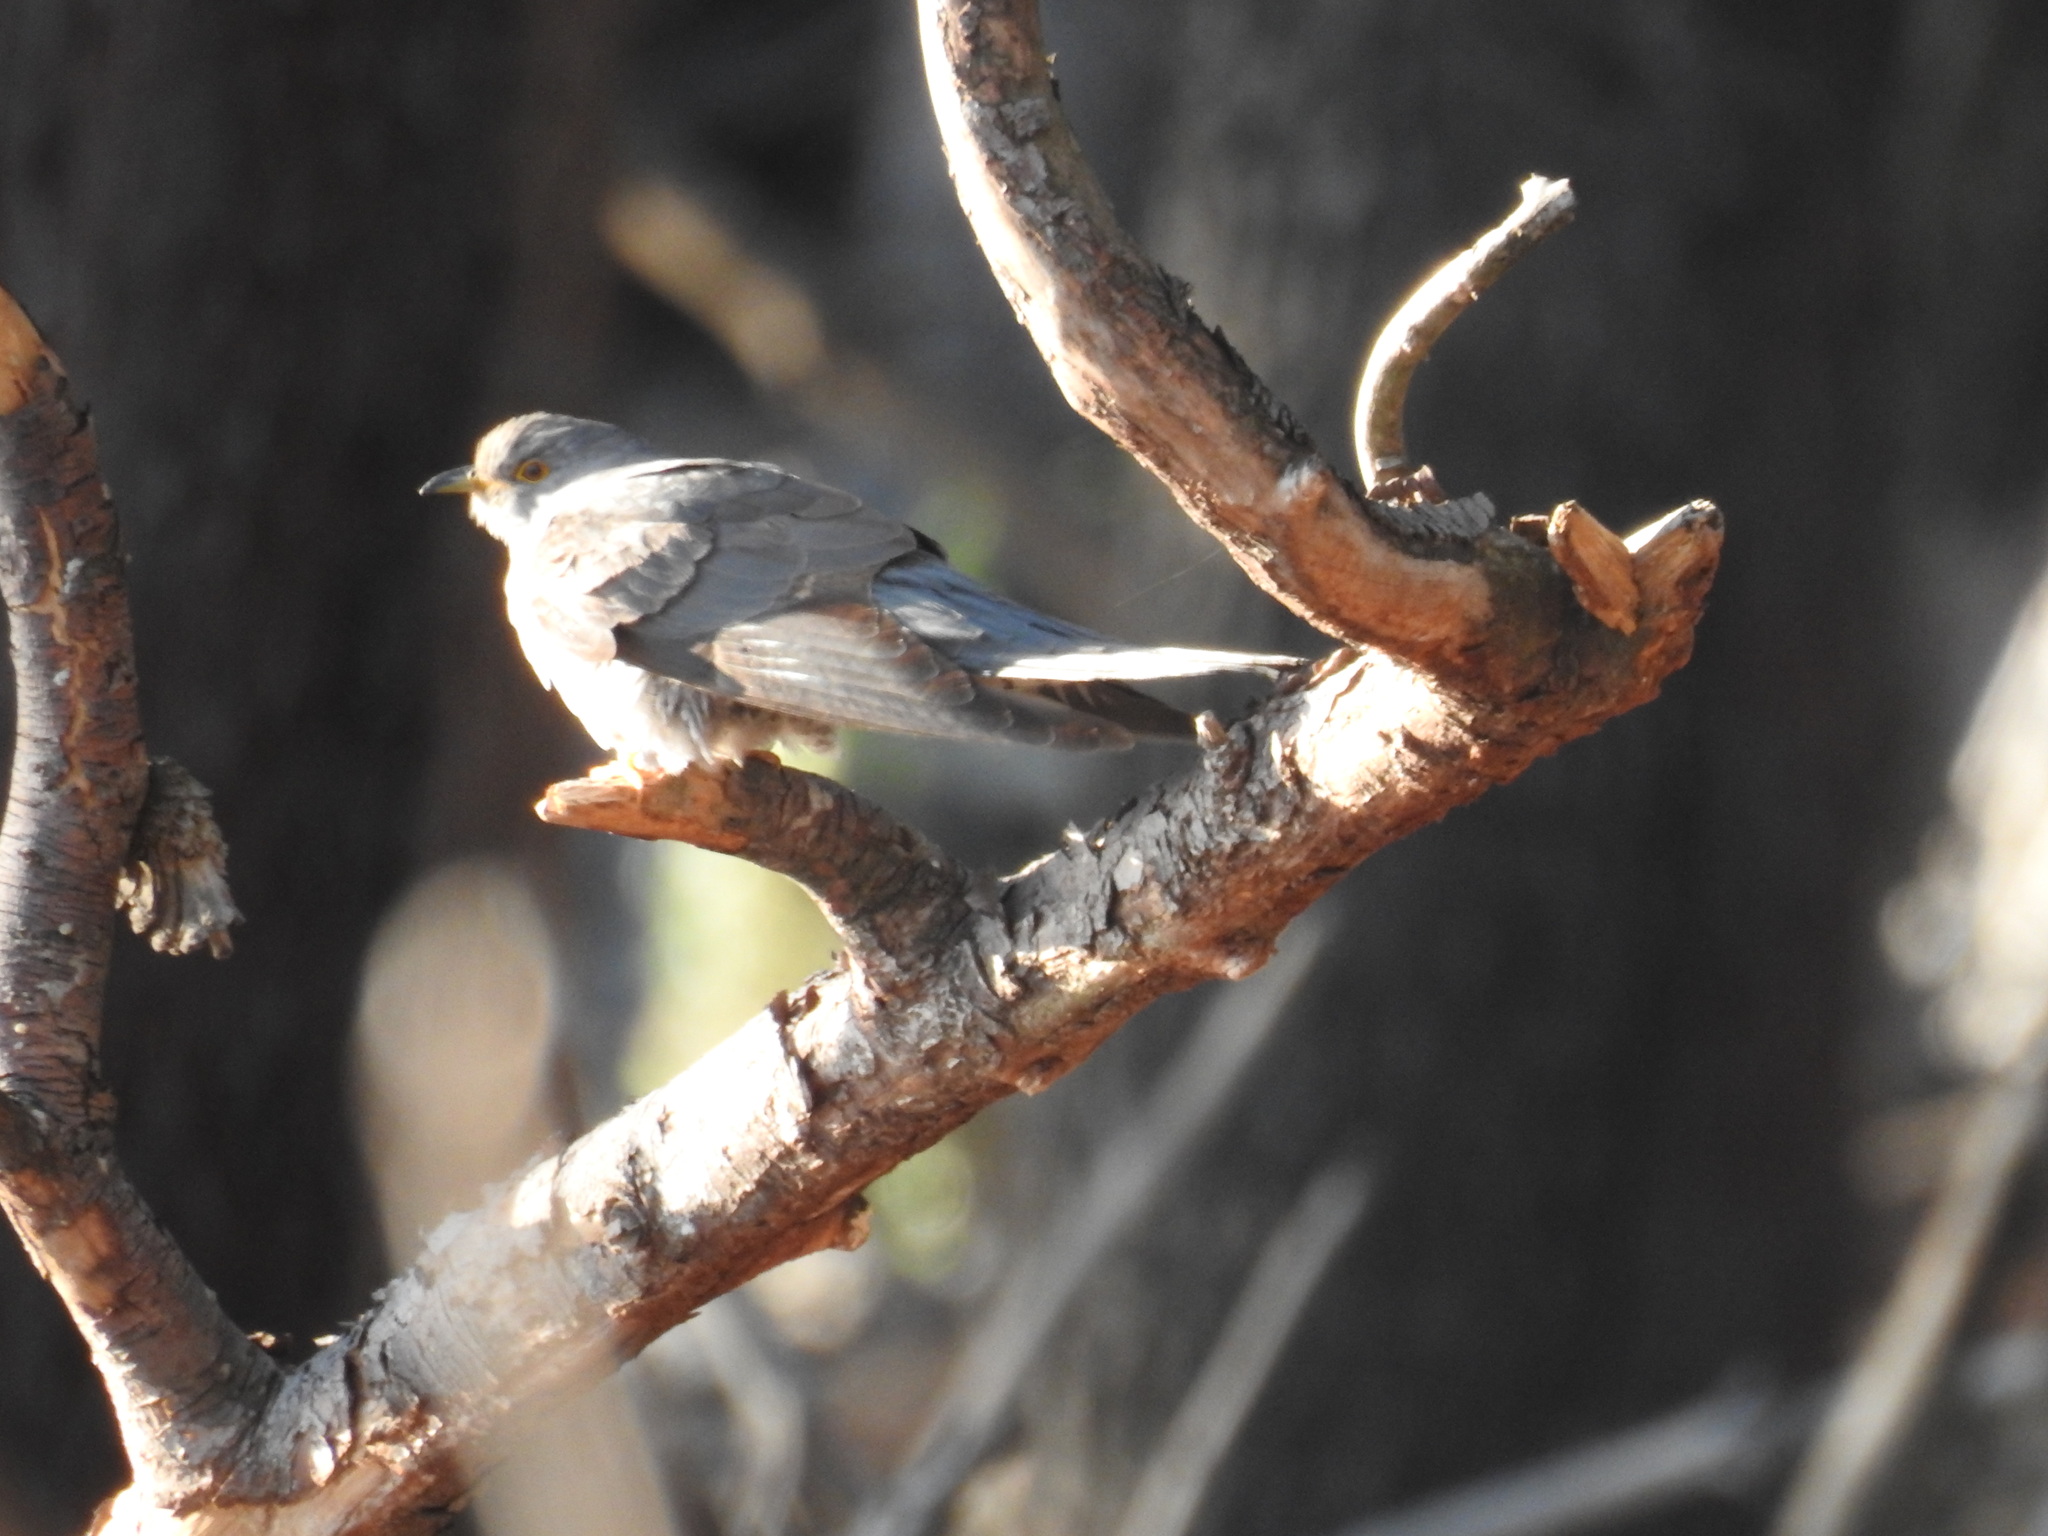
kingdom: Animalia
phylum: Chordata
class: Aves
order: Cuculiformes
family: Cuculidae
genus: Cuculus
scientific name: Cuculus canorus
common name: Common cuckoo
